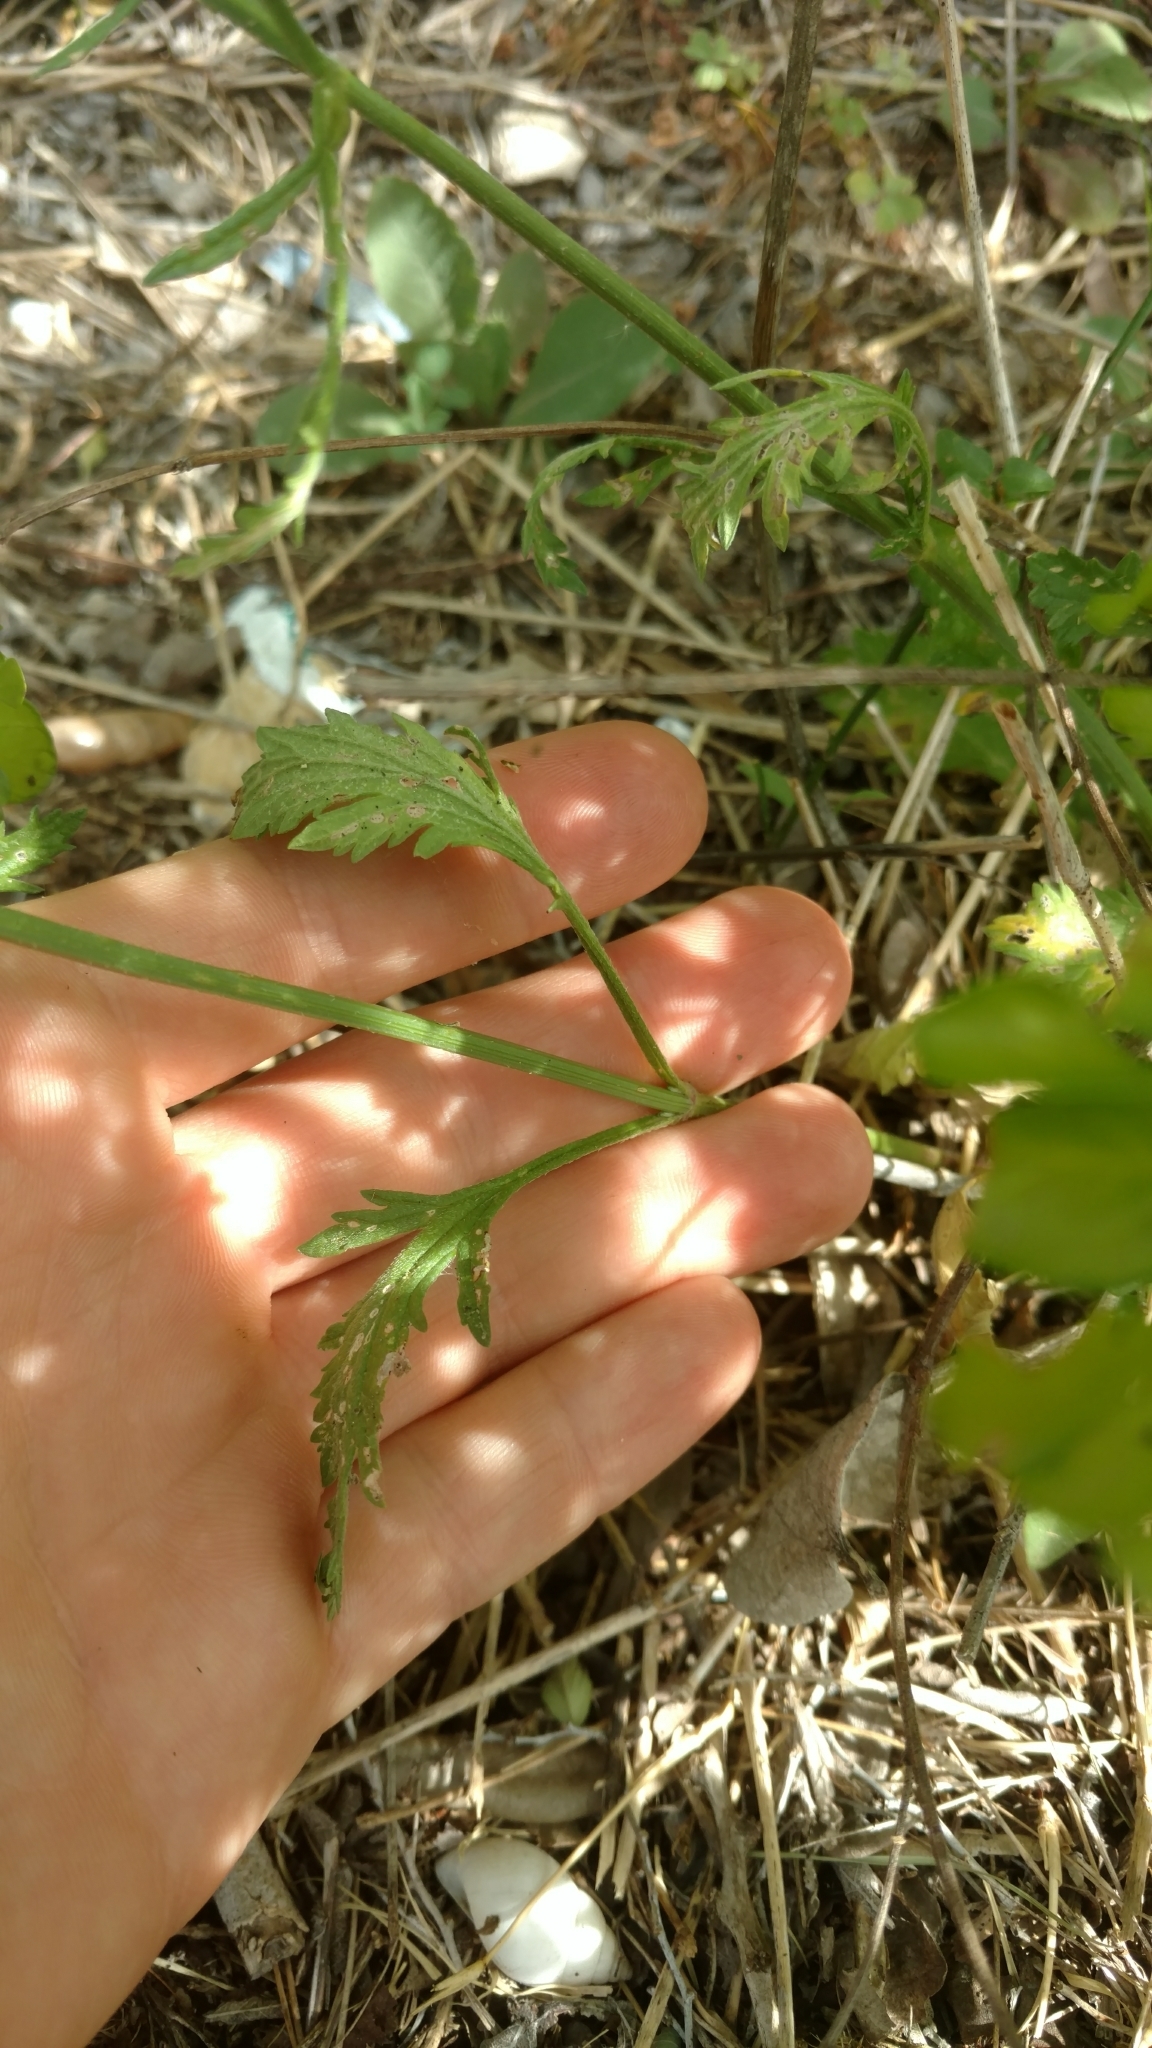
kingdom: Plantae
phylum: Tracheophyta
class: Magnoliopsida
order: Lamiales
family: Verbenaceae
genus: Verbena
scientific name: Verbena halei
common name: Texas vervain
